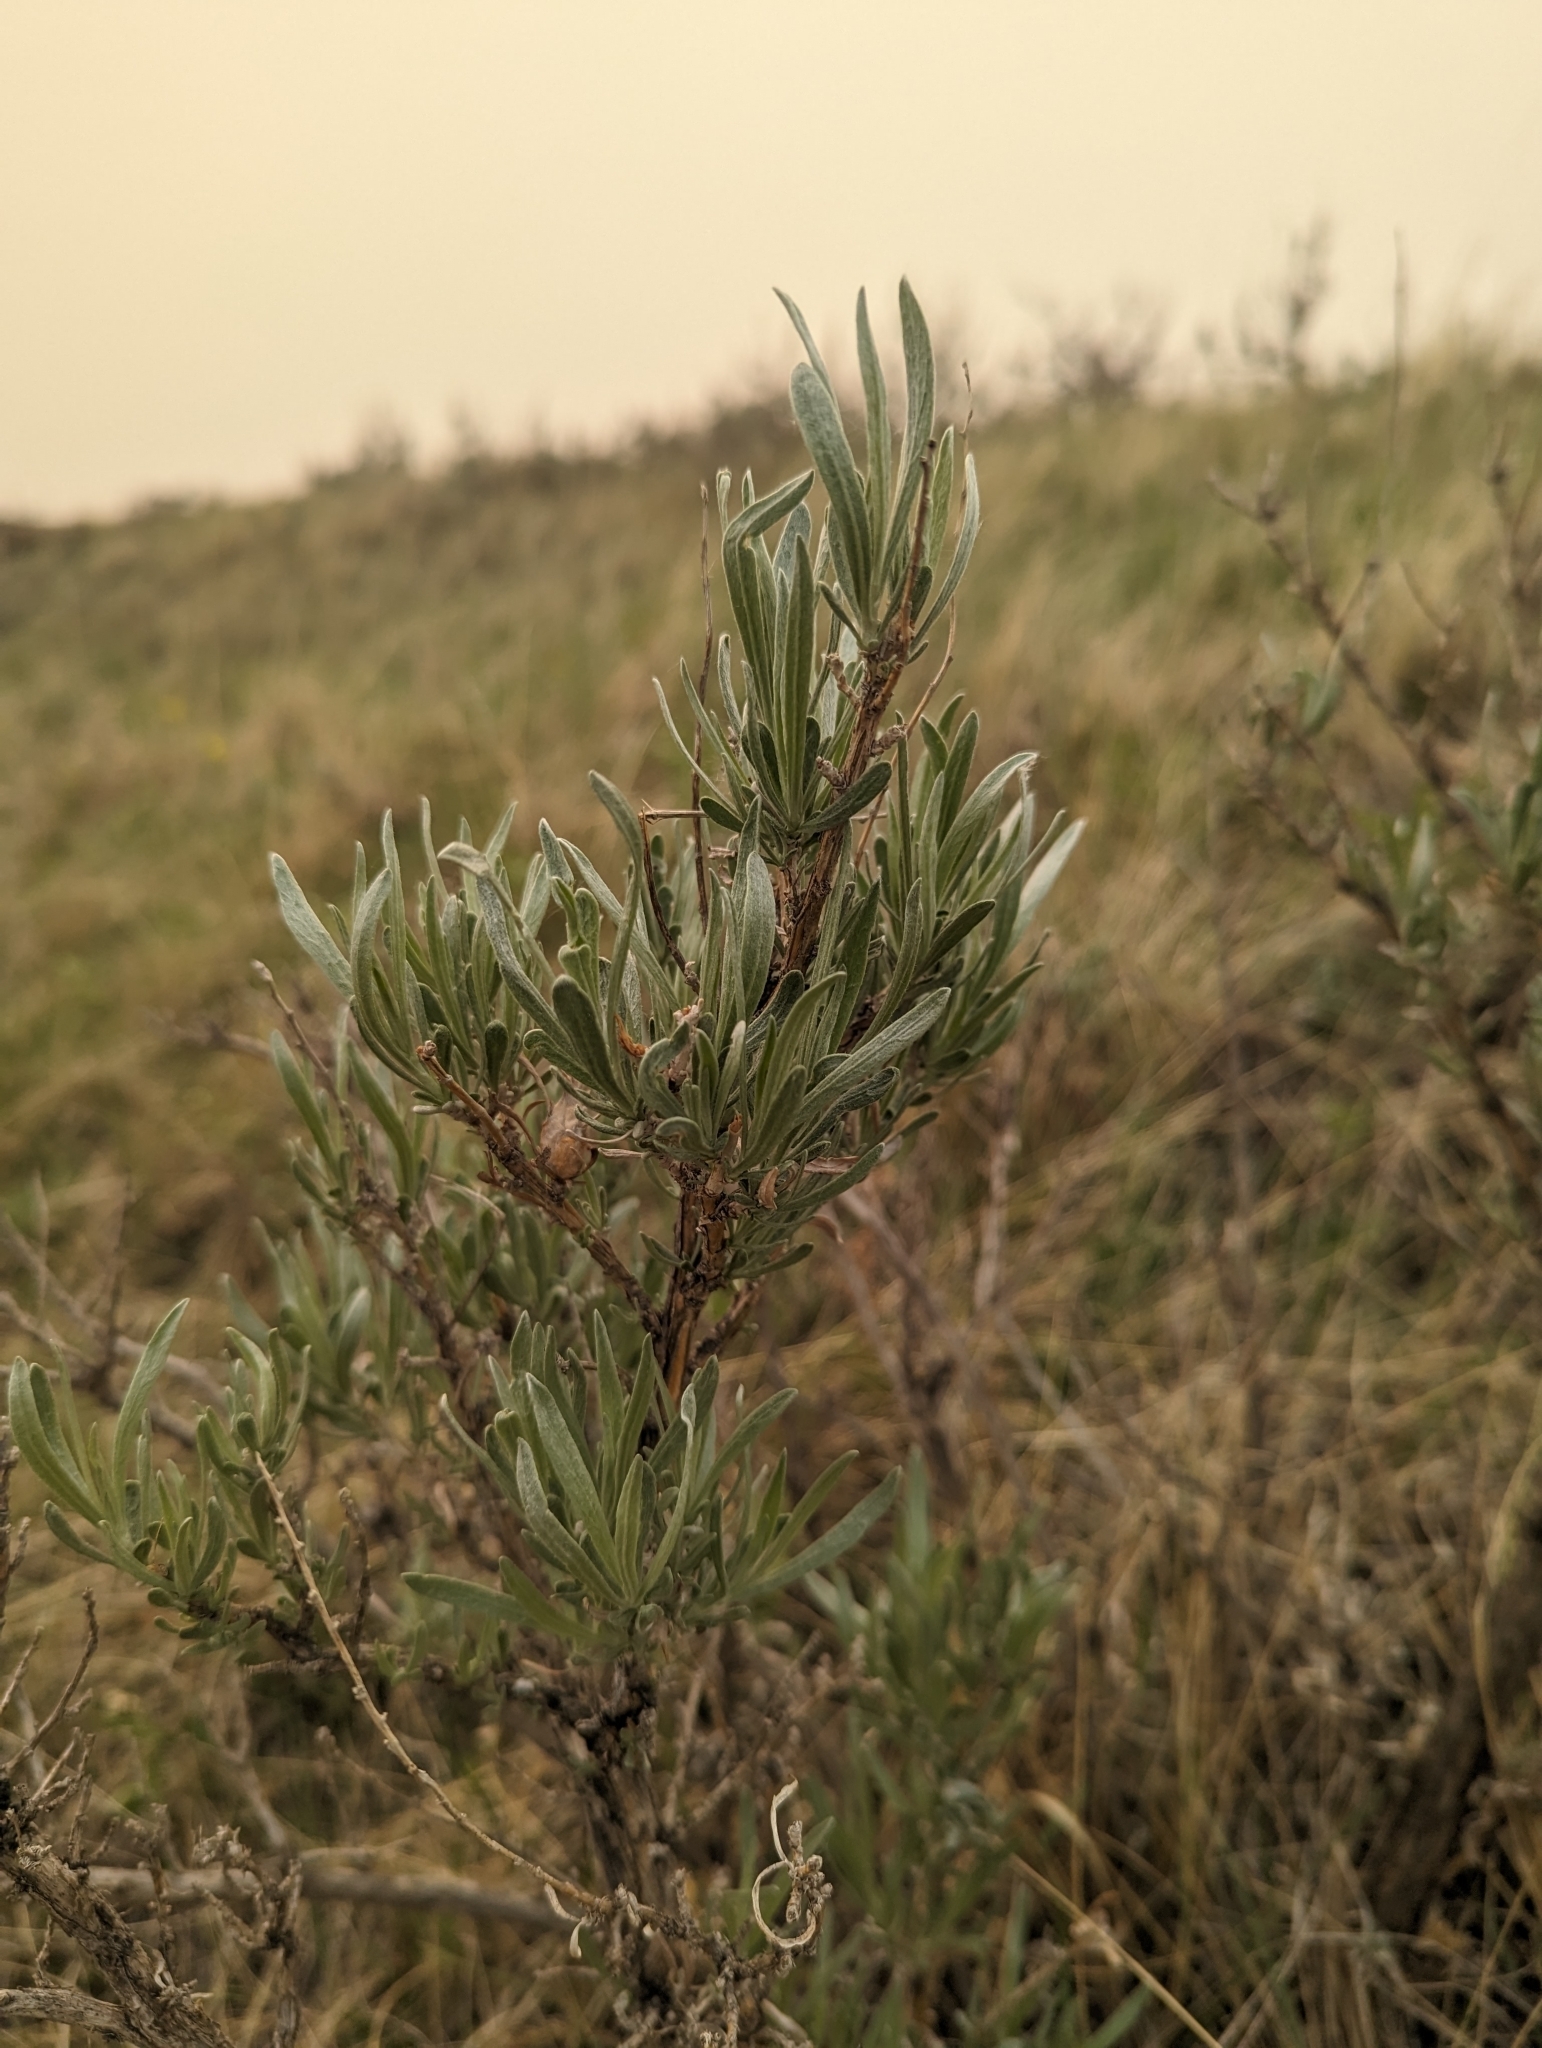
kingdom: Plantae
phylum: Tracheophyta
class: Magnoliopsida
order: Asterales
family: Asteraceae
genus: Artemisia
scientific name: Artemisia cana
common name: Silver sagebrush
